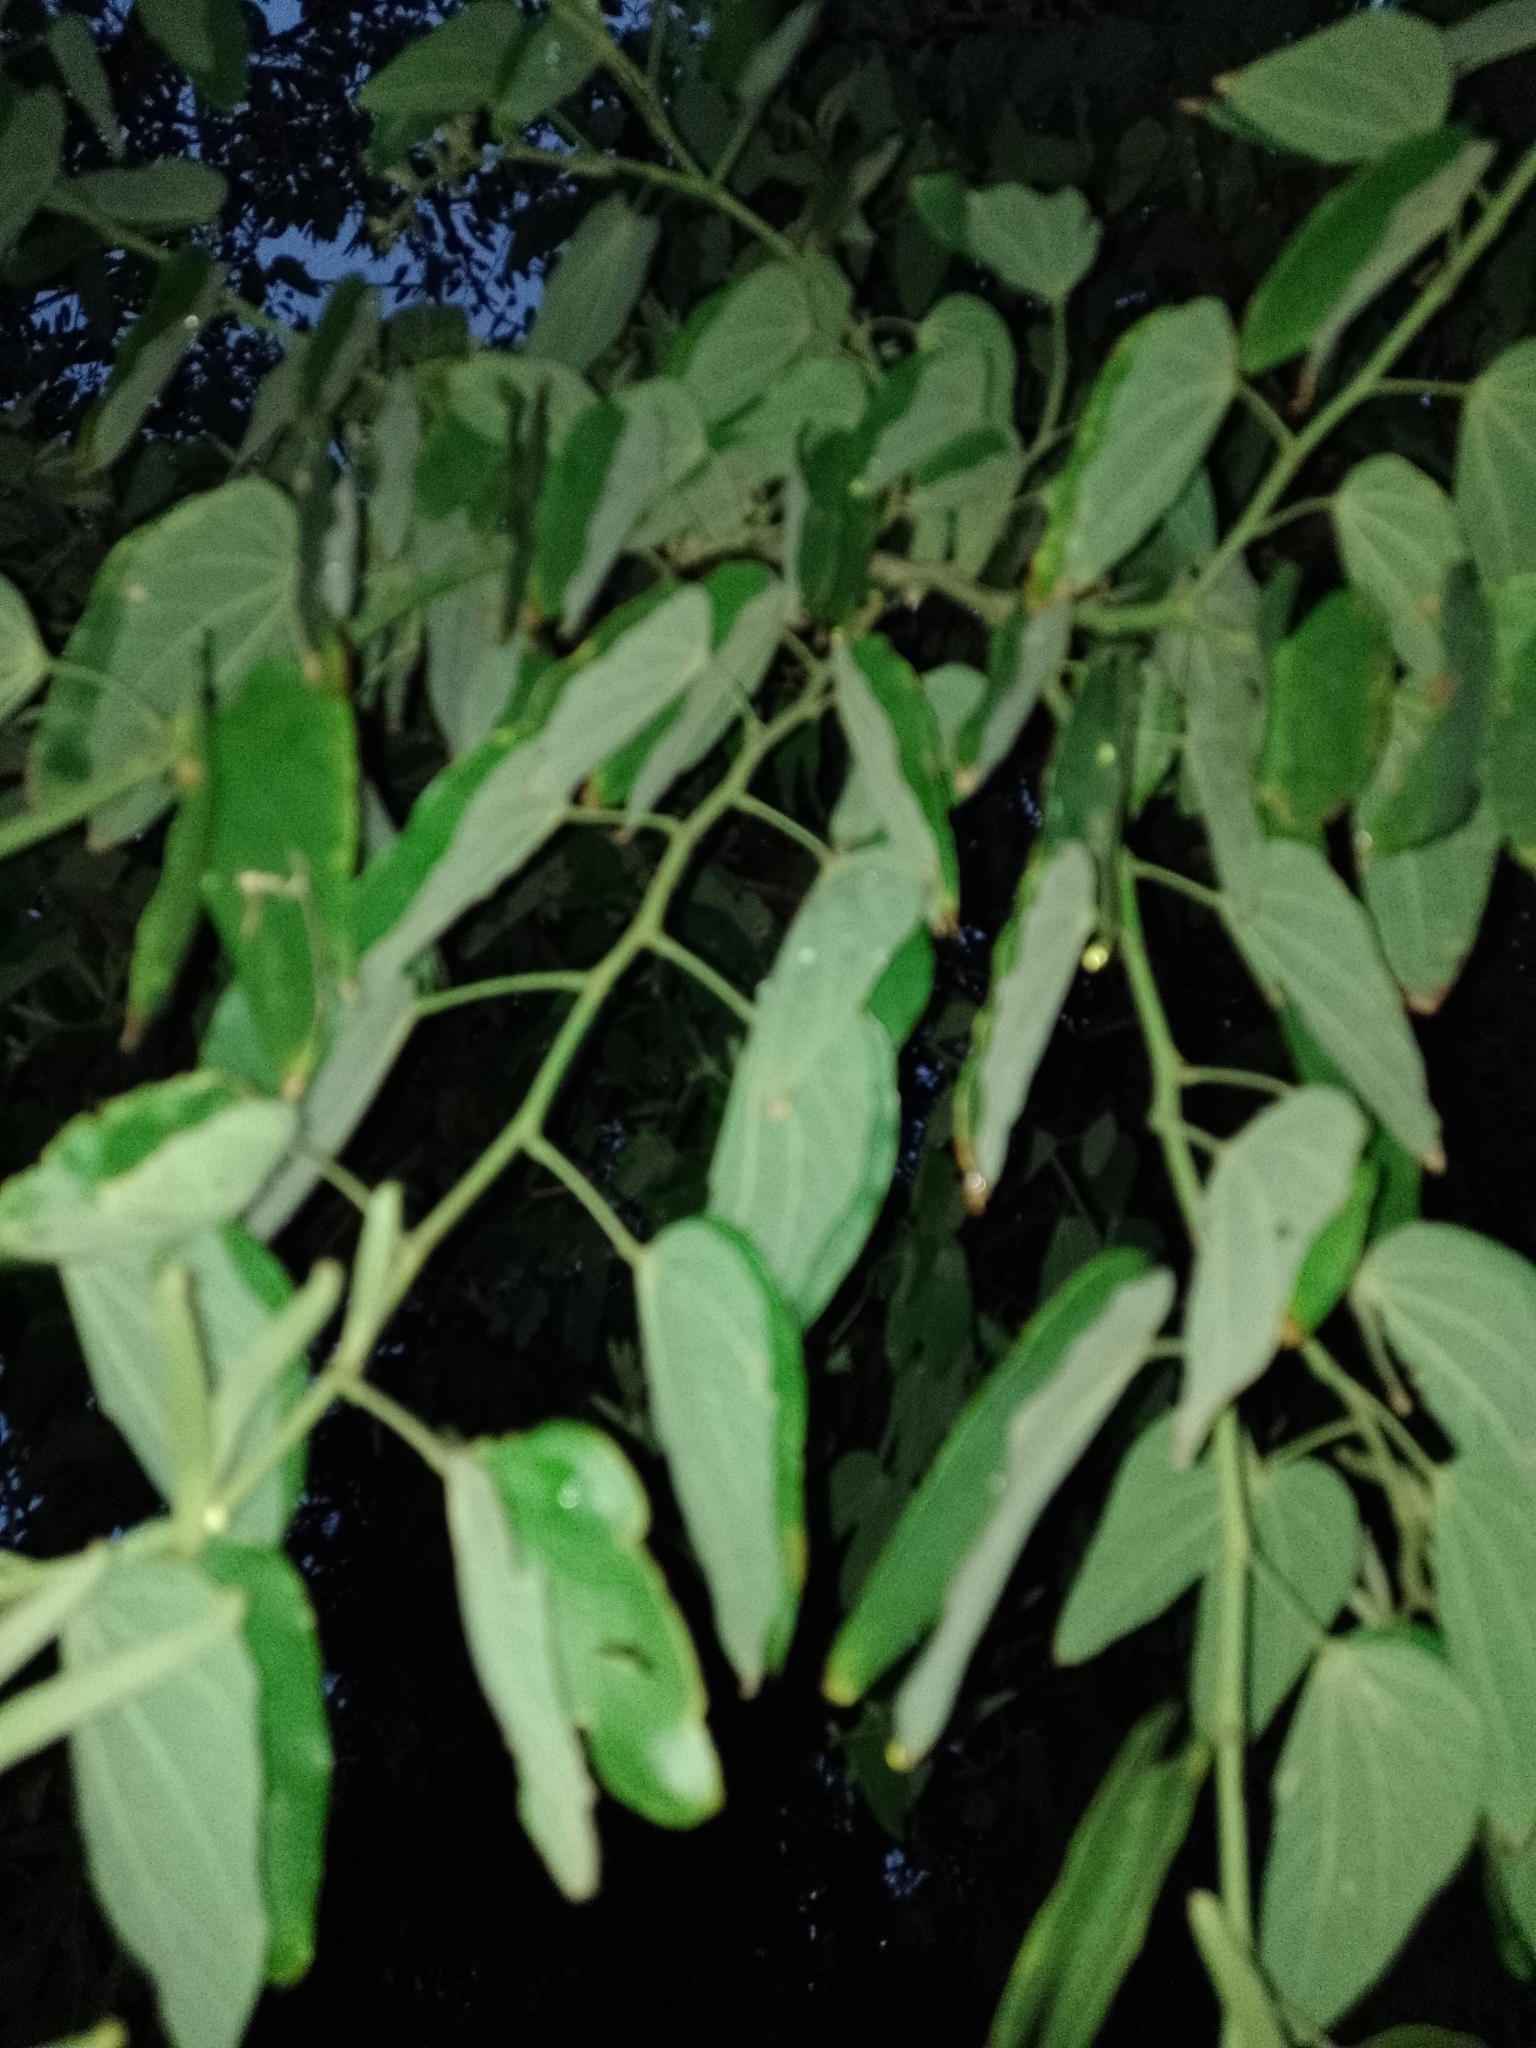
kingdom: Plantae
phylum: Tracheophyta
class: Magnoliopsida
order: Fabales
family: Fabaceae
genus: Bauhinia
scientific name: Bauhinia forficata
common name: Orchid tree
